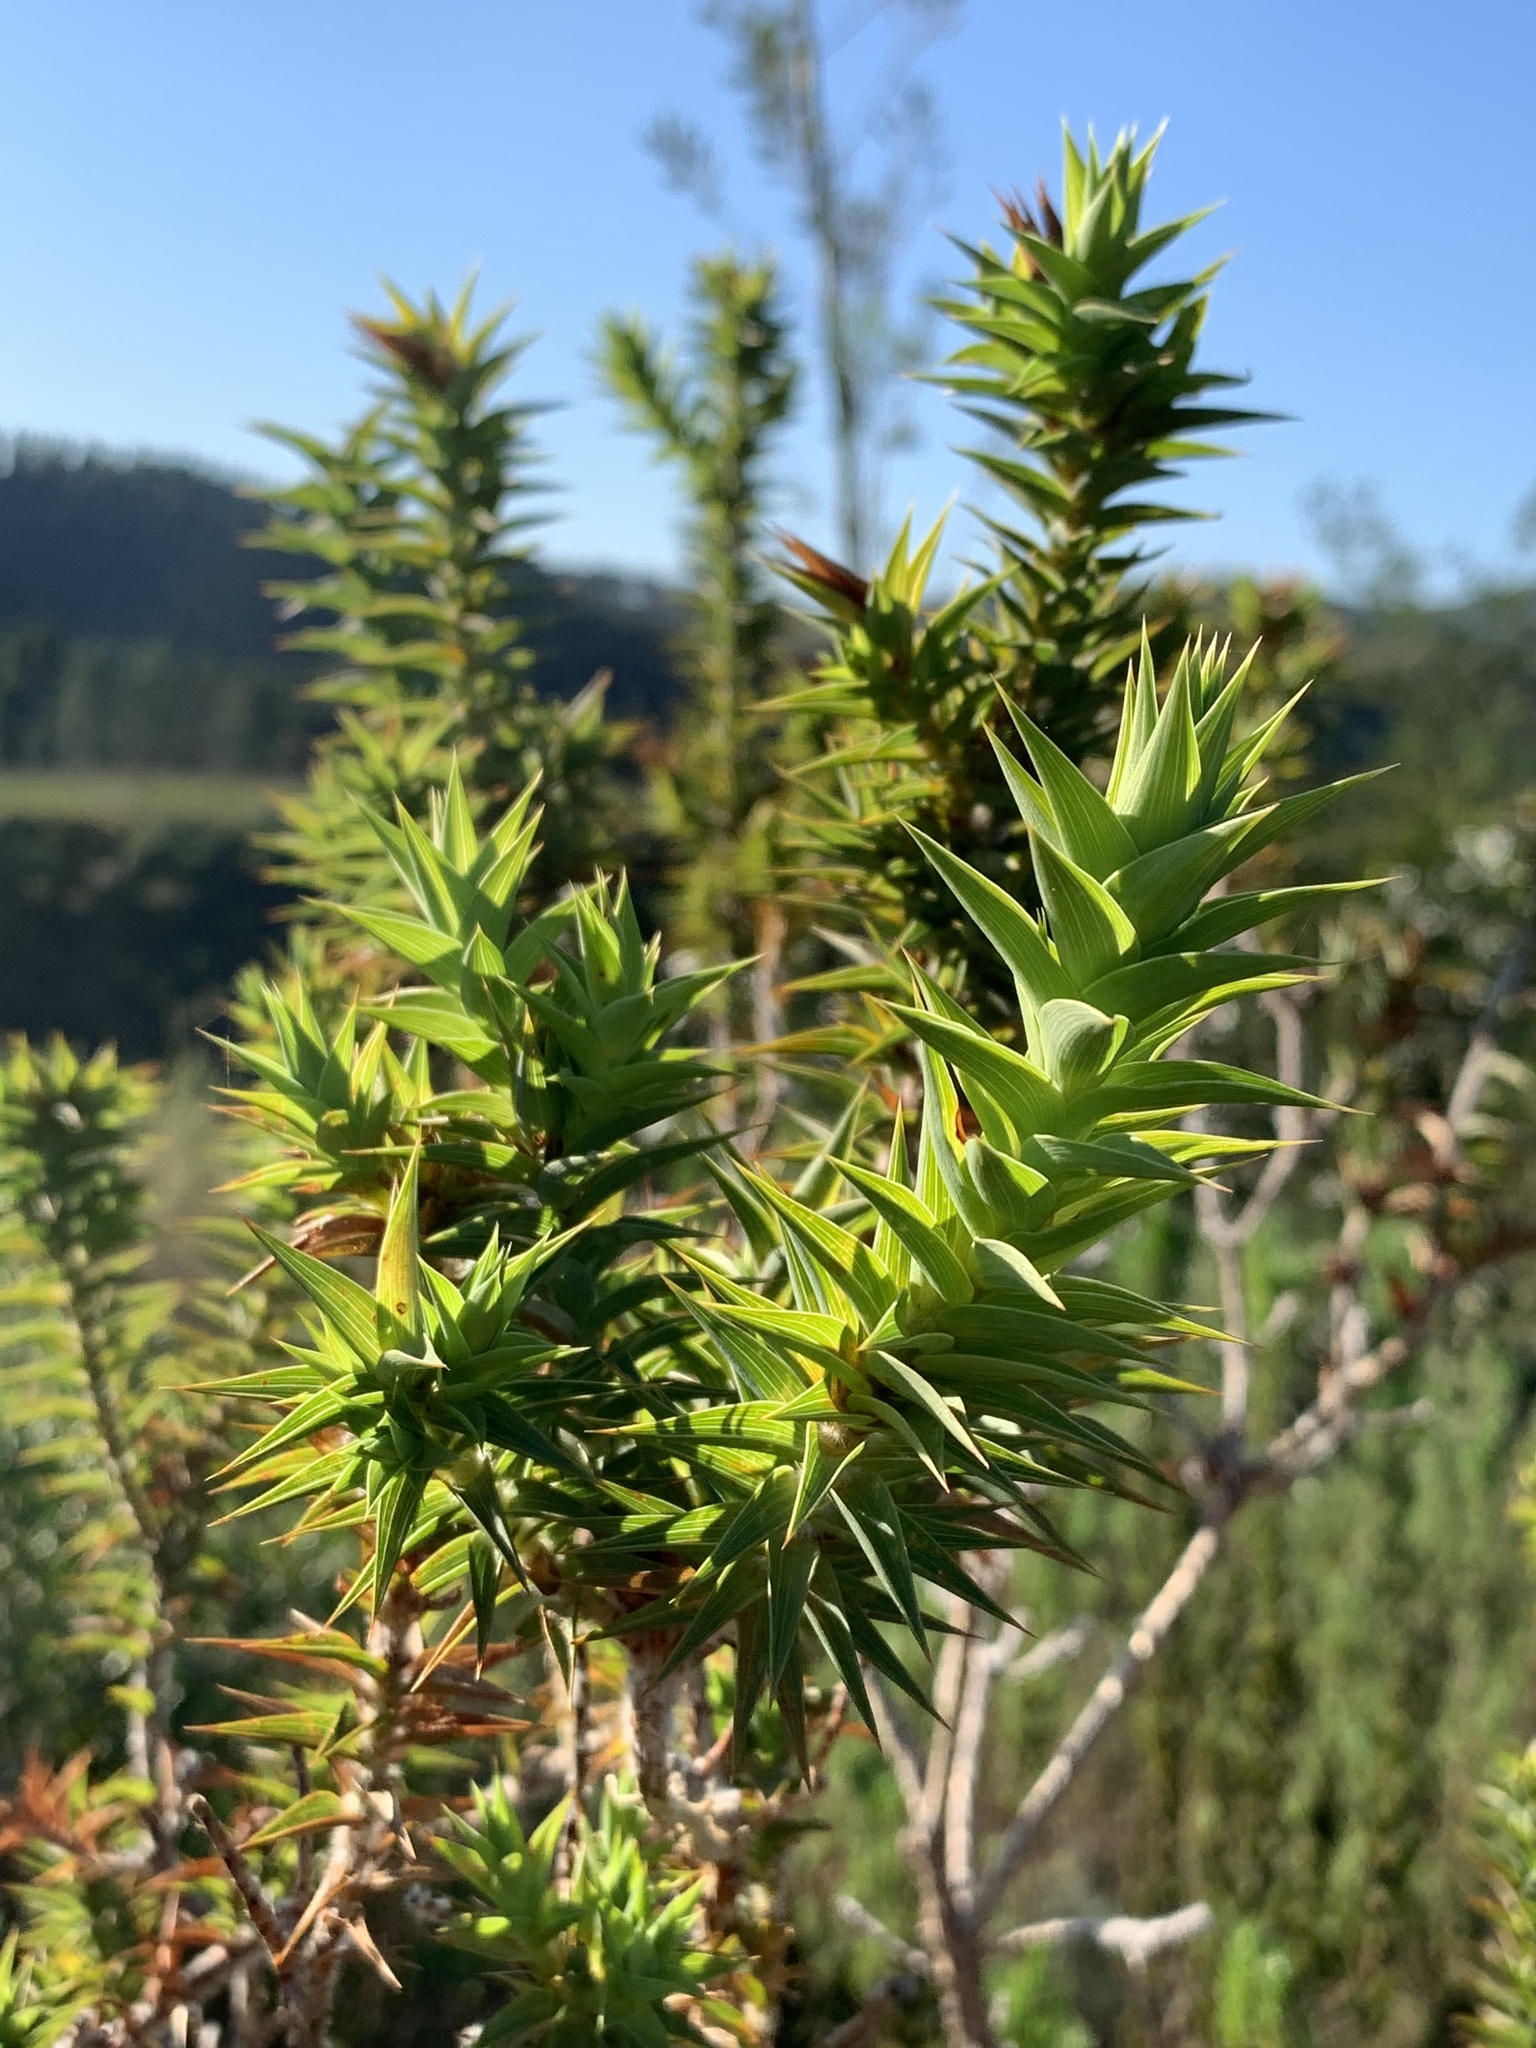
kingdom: Plantae
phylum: Tracheophyta
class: Magnoliopsida
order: Fabales
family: Fabaceae
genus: Aspalathus
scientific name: Aspalathus cordata
